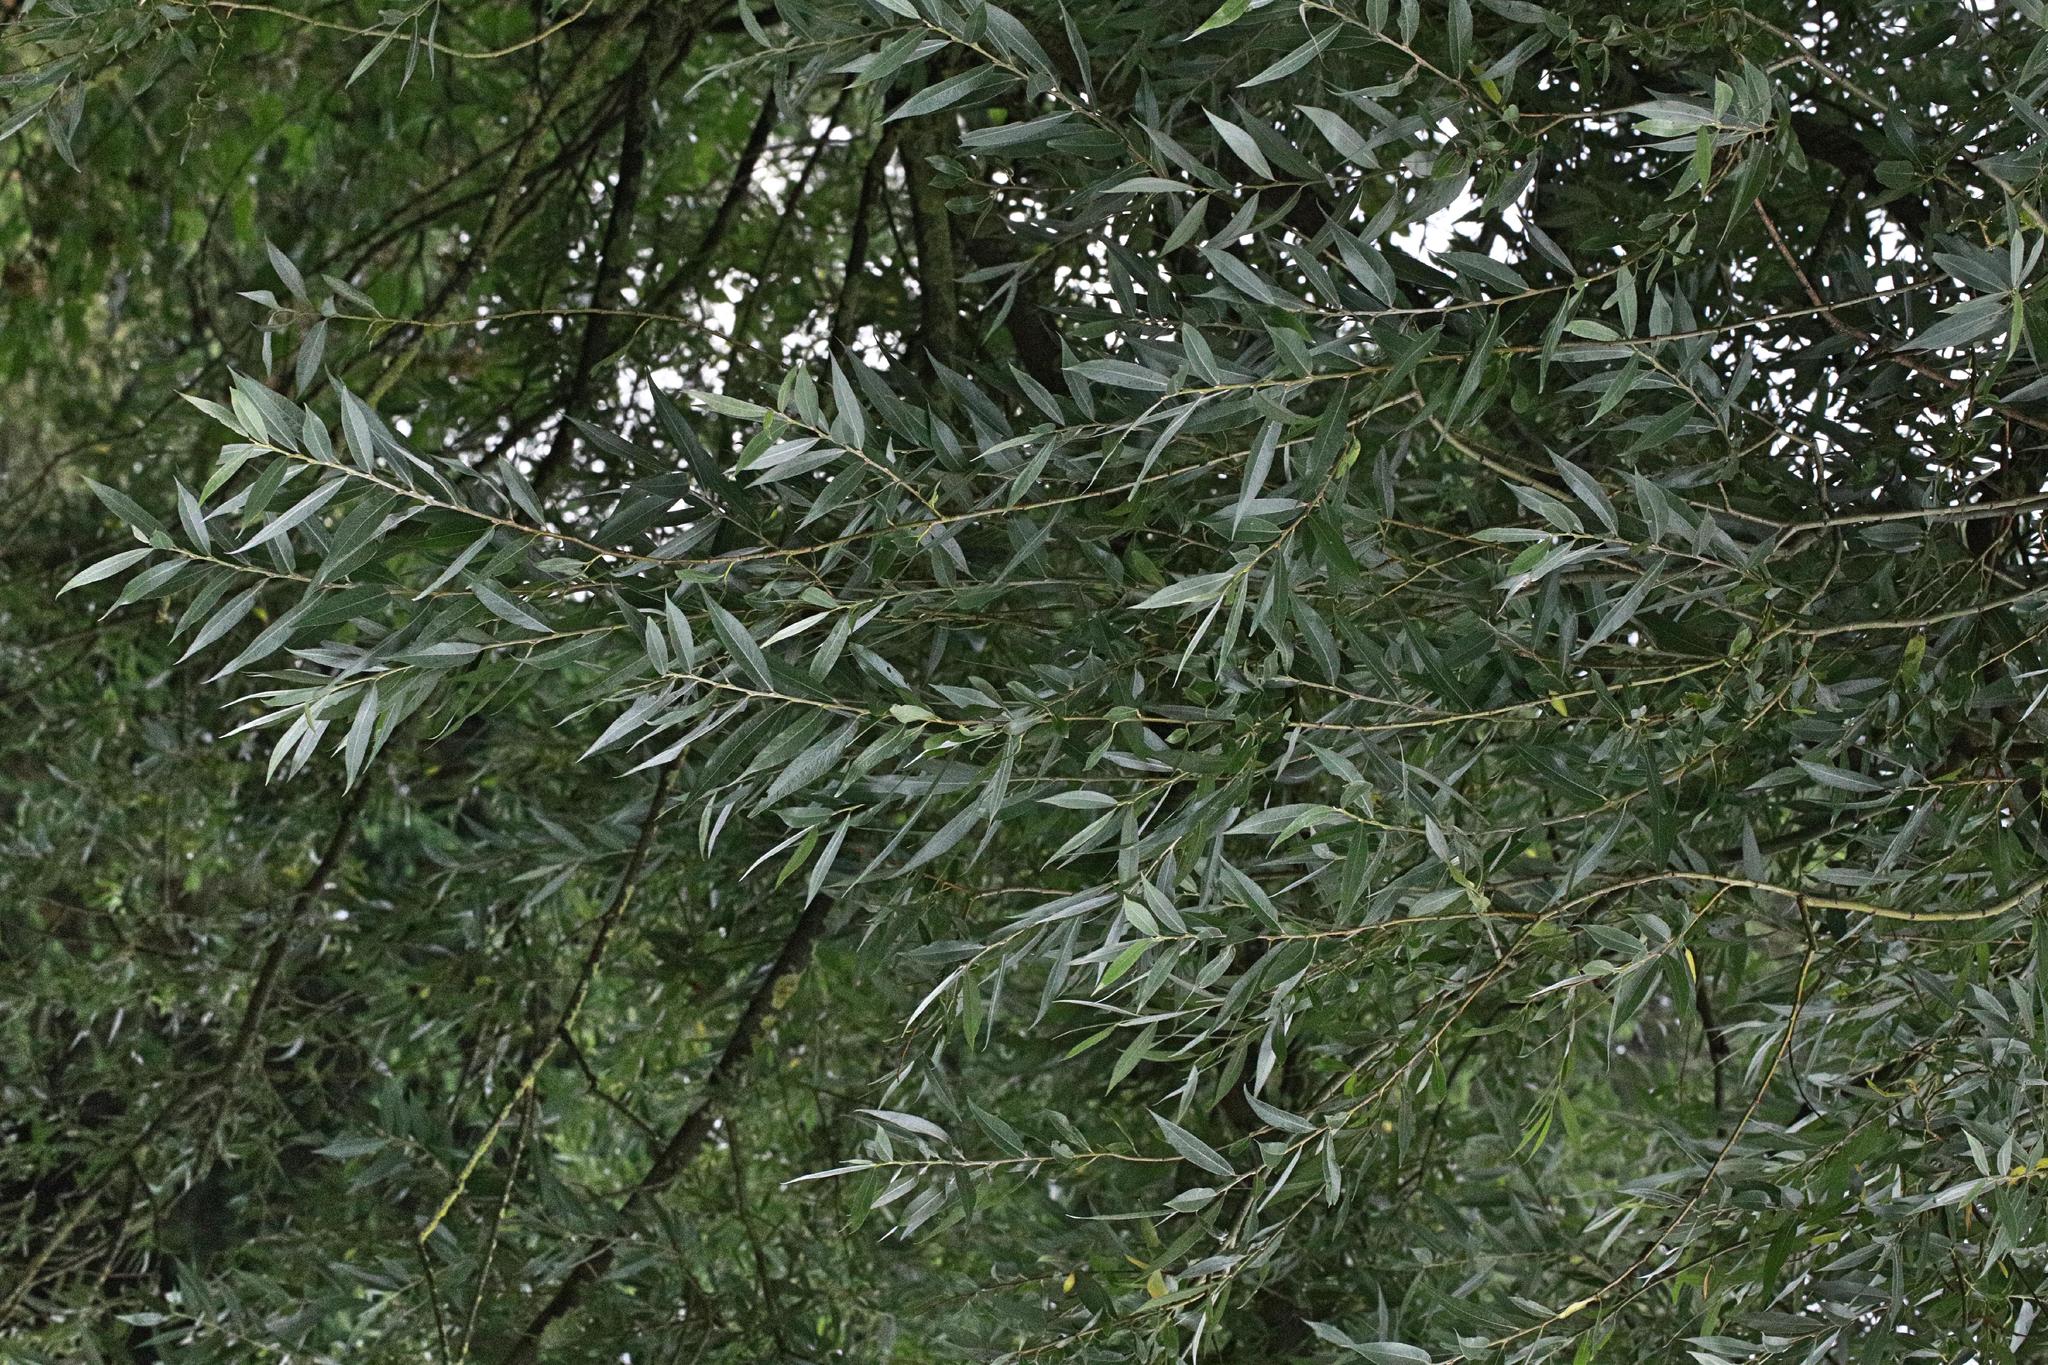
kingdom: Plantae
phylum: Tracheophyta
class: Magnoliopsida
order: Malpighiales
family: Salicaceae
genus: Salix
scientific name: Salix alba
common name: White willow
